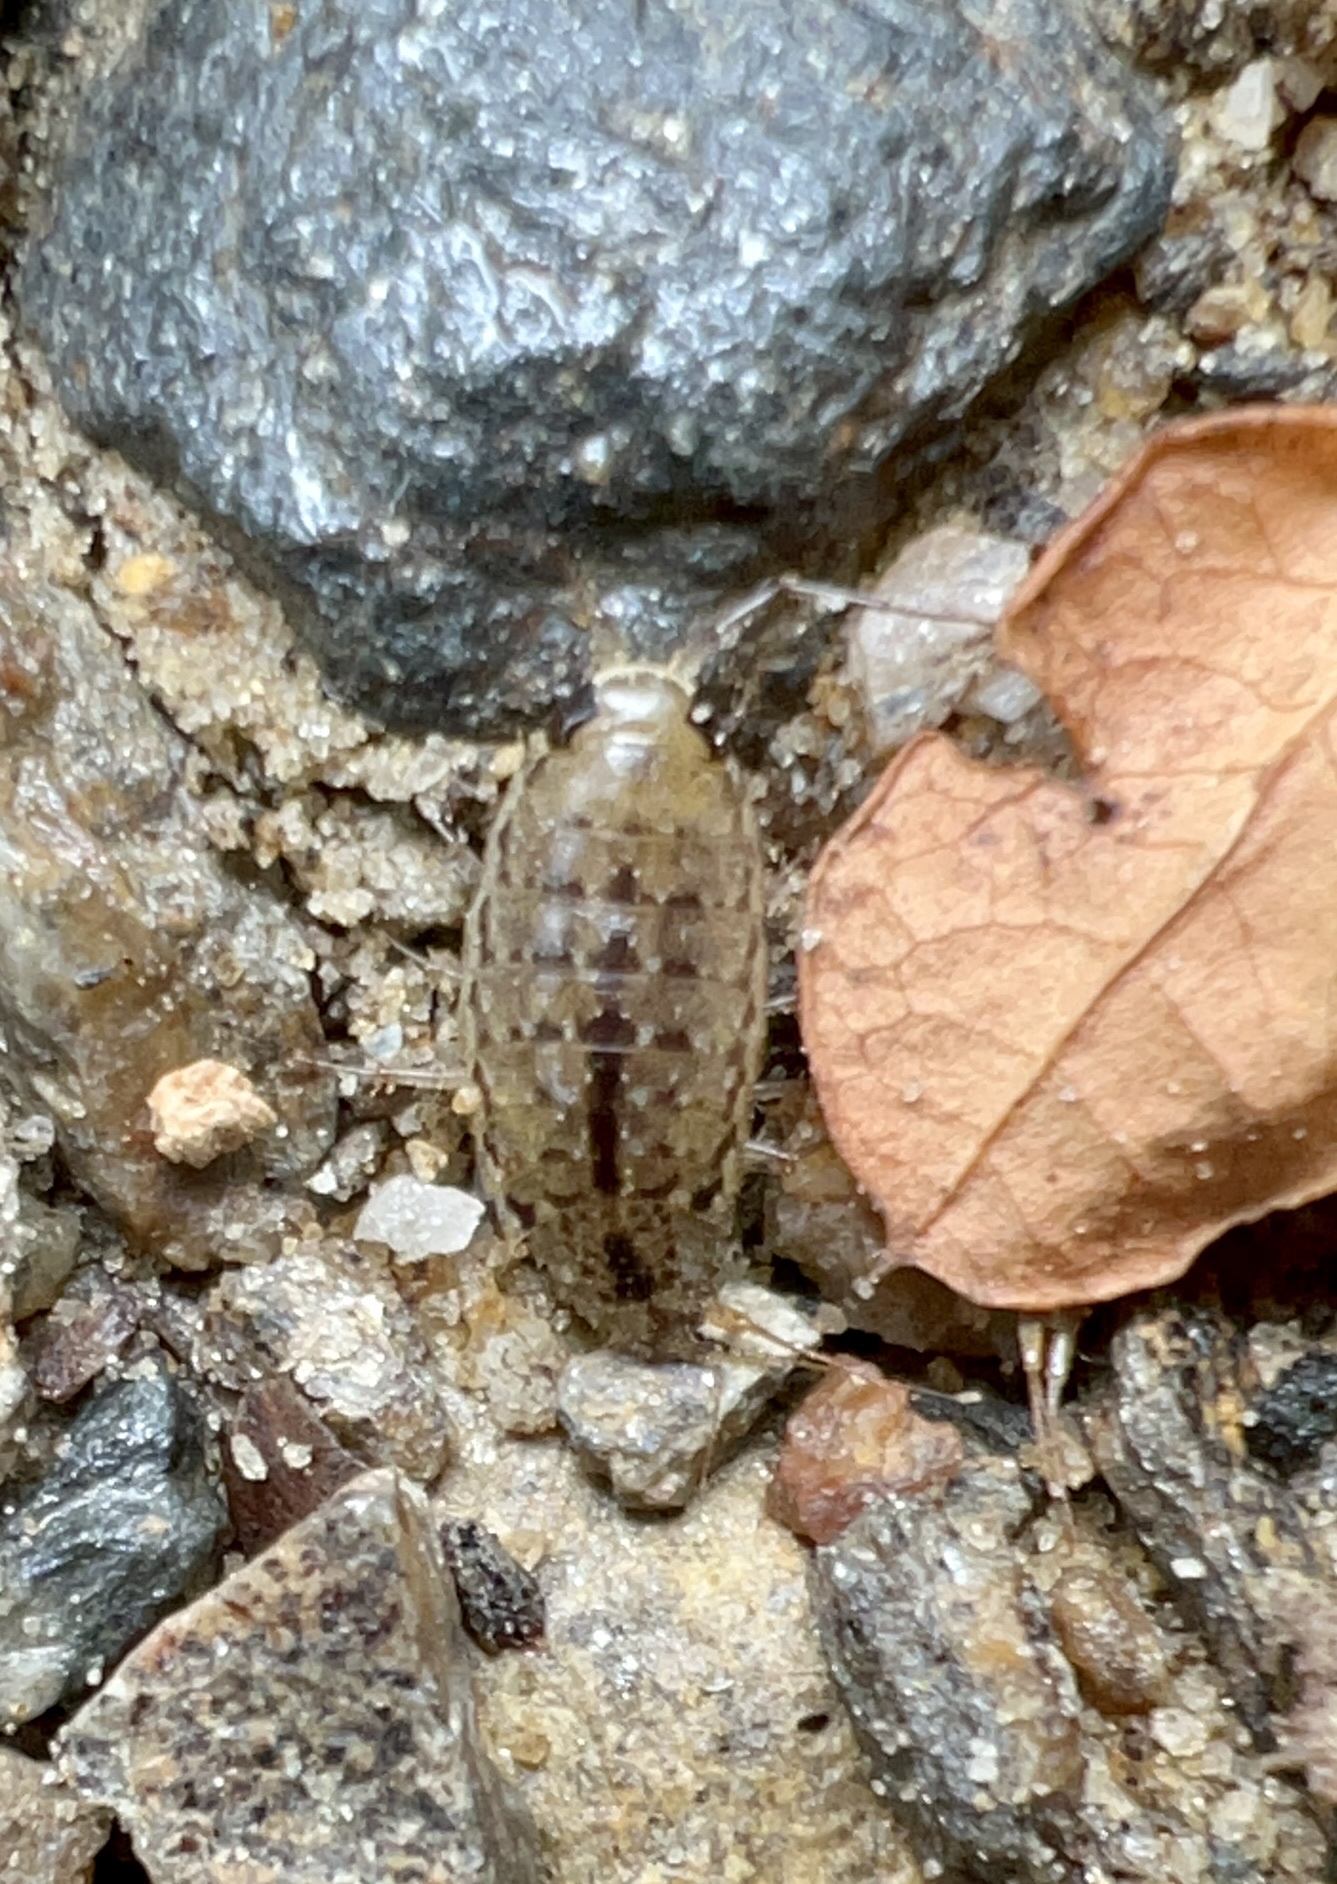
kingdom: Animalia
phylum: Arthropoda
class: Malacostraca
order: Isopoda
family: Ligiidae
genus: Ligia
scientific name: Ligia platycephala
